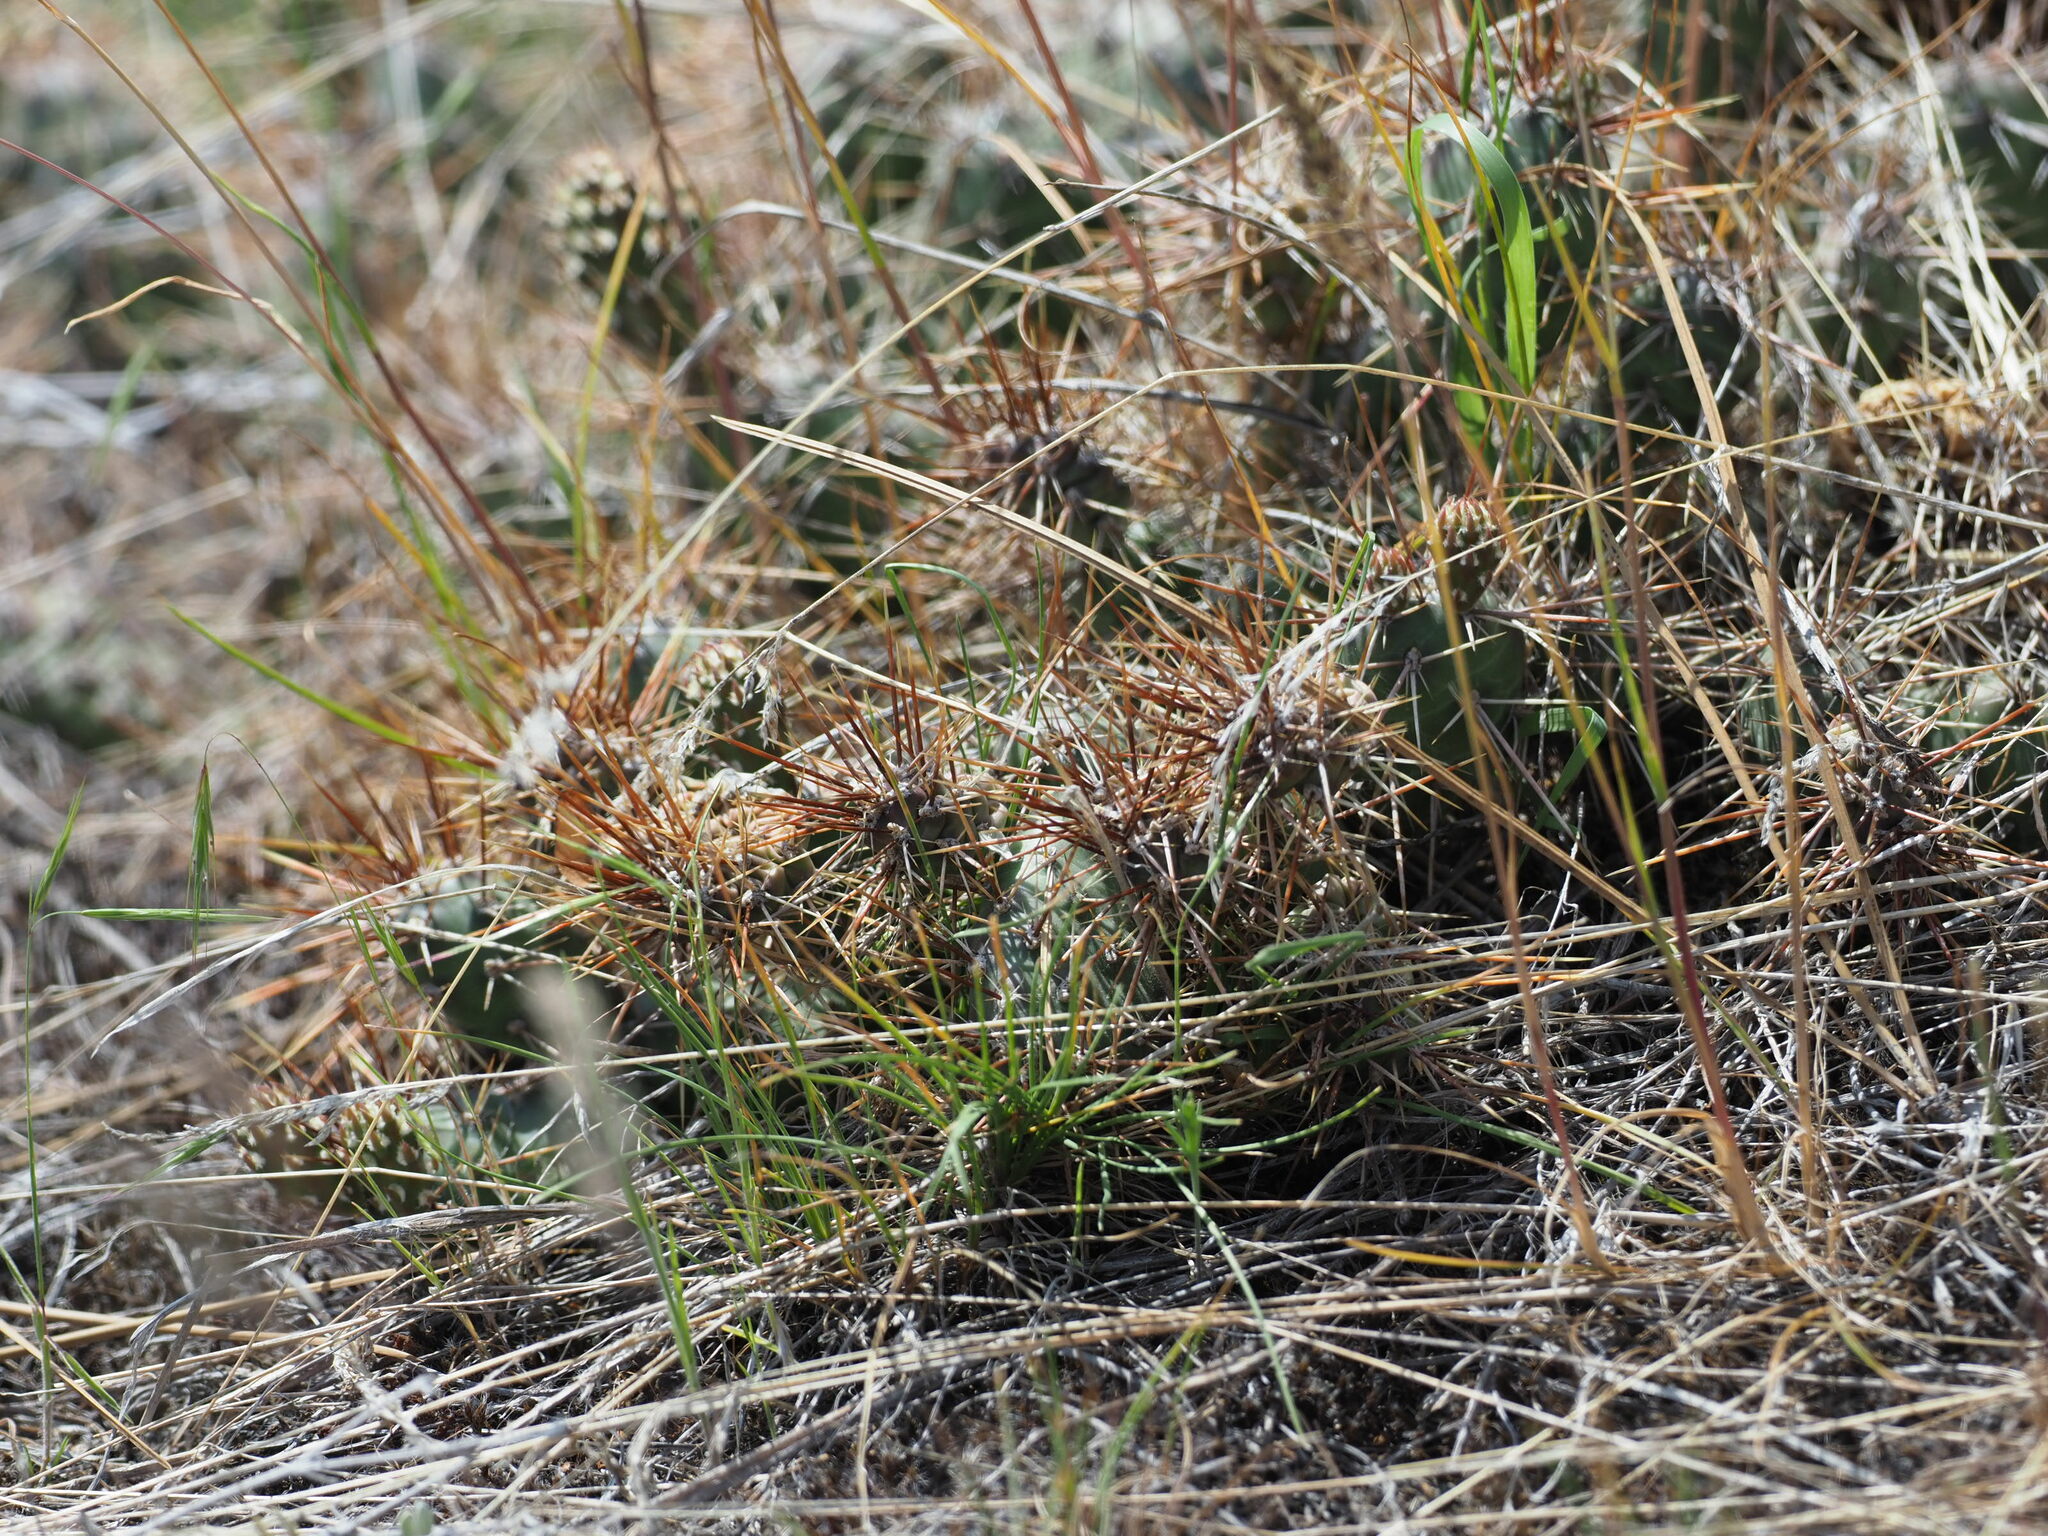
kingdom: Plantae
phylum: Tracheophyta
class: Magnoliopsida
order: Caryophyllales
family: Cactaceae
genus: Opuntia
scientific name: Opuntia fragilis
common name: Brittle cactus
